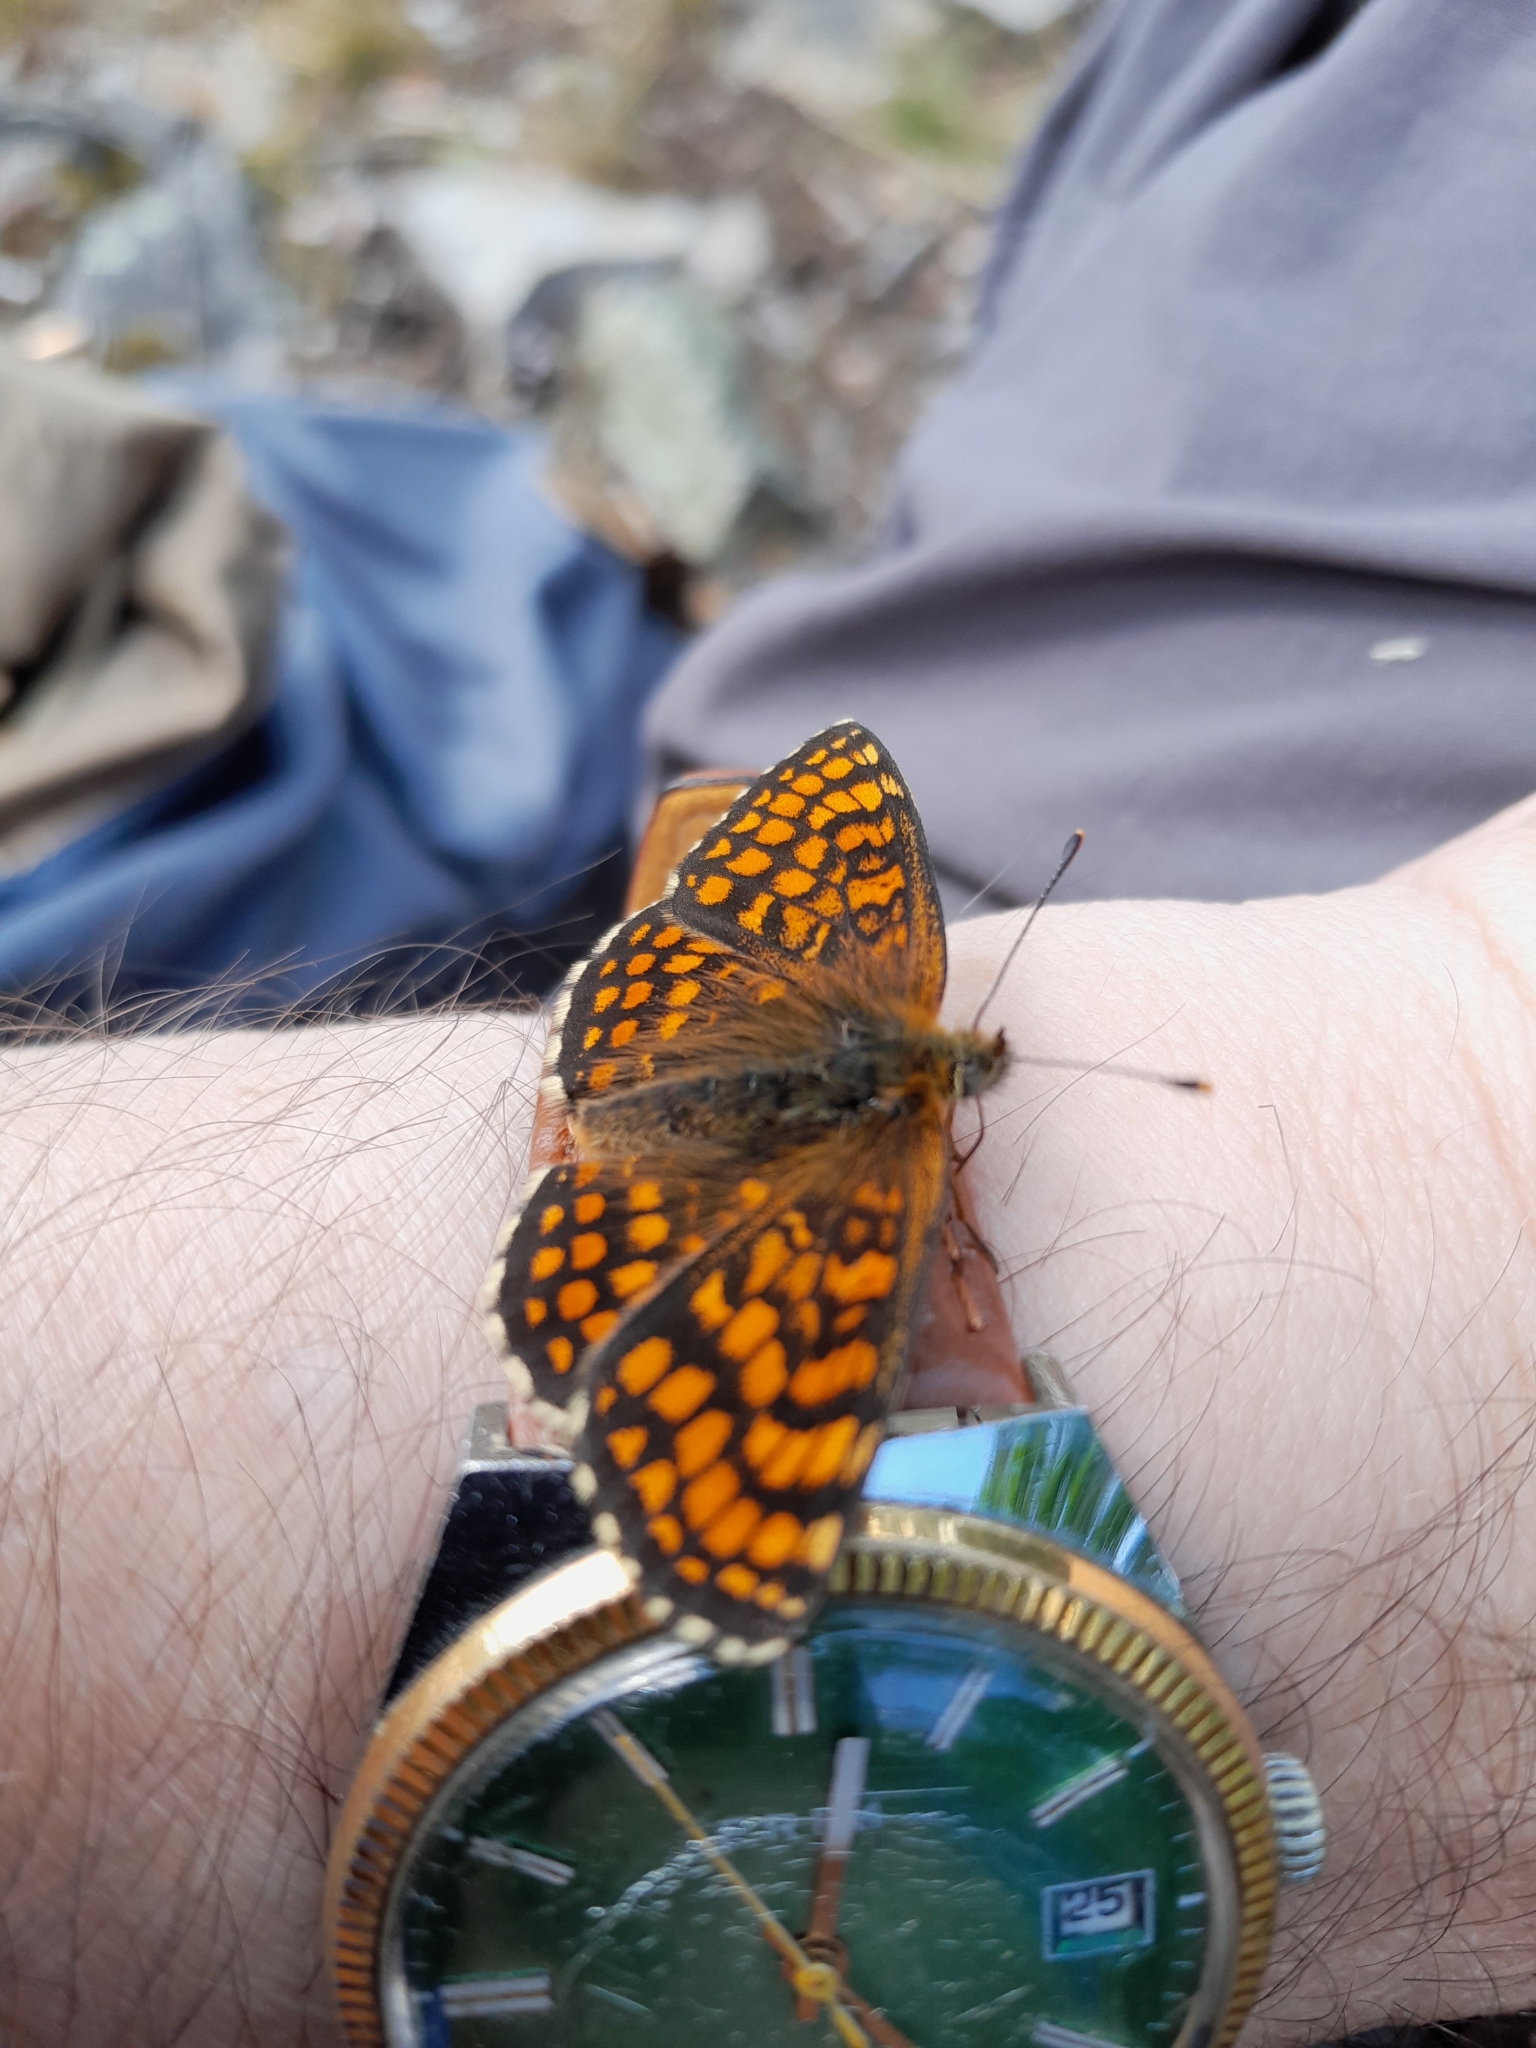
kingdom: Animalia
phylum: Arthropoda
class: Insecta
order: Lepidoptera
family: Nymphalidae
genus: Melitaea
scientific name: Melitaea athalia
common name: Heath fritillary
